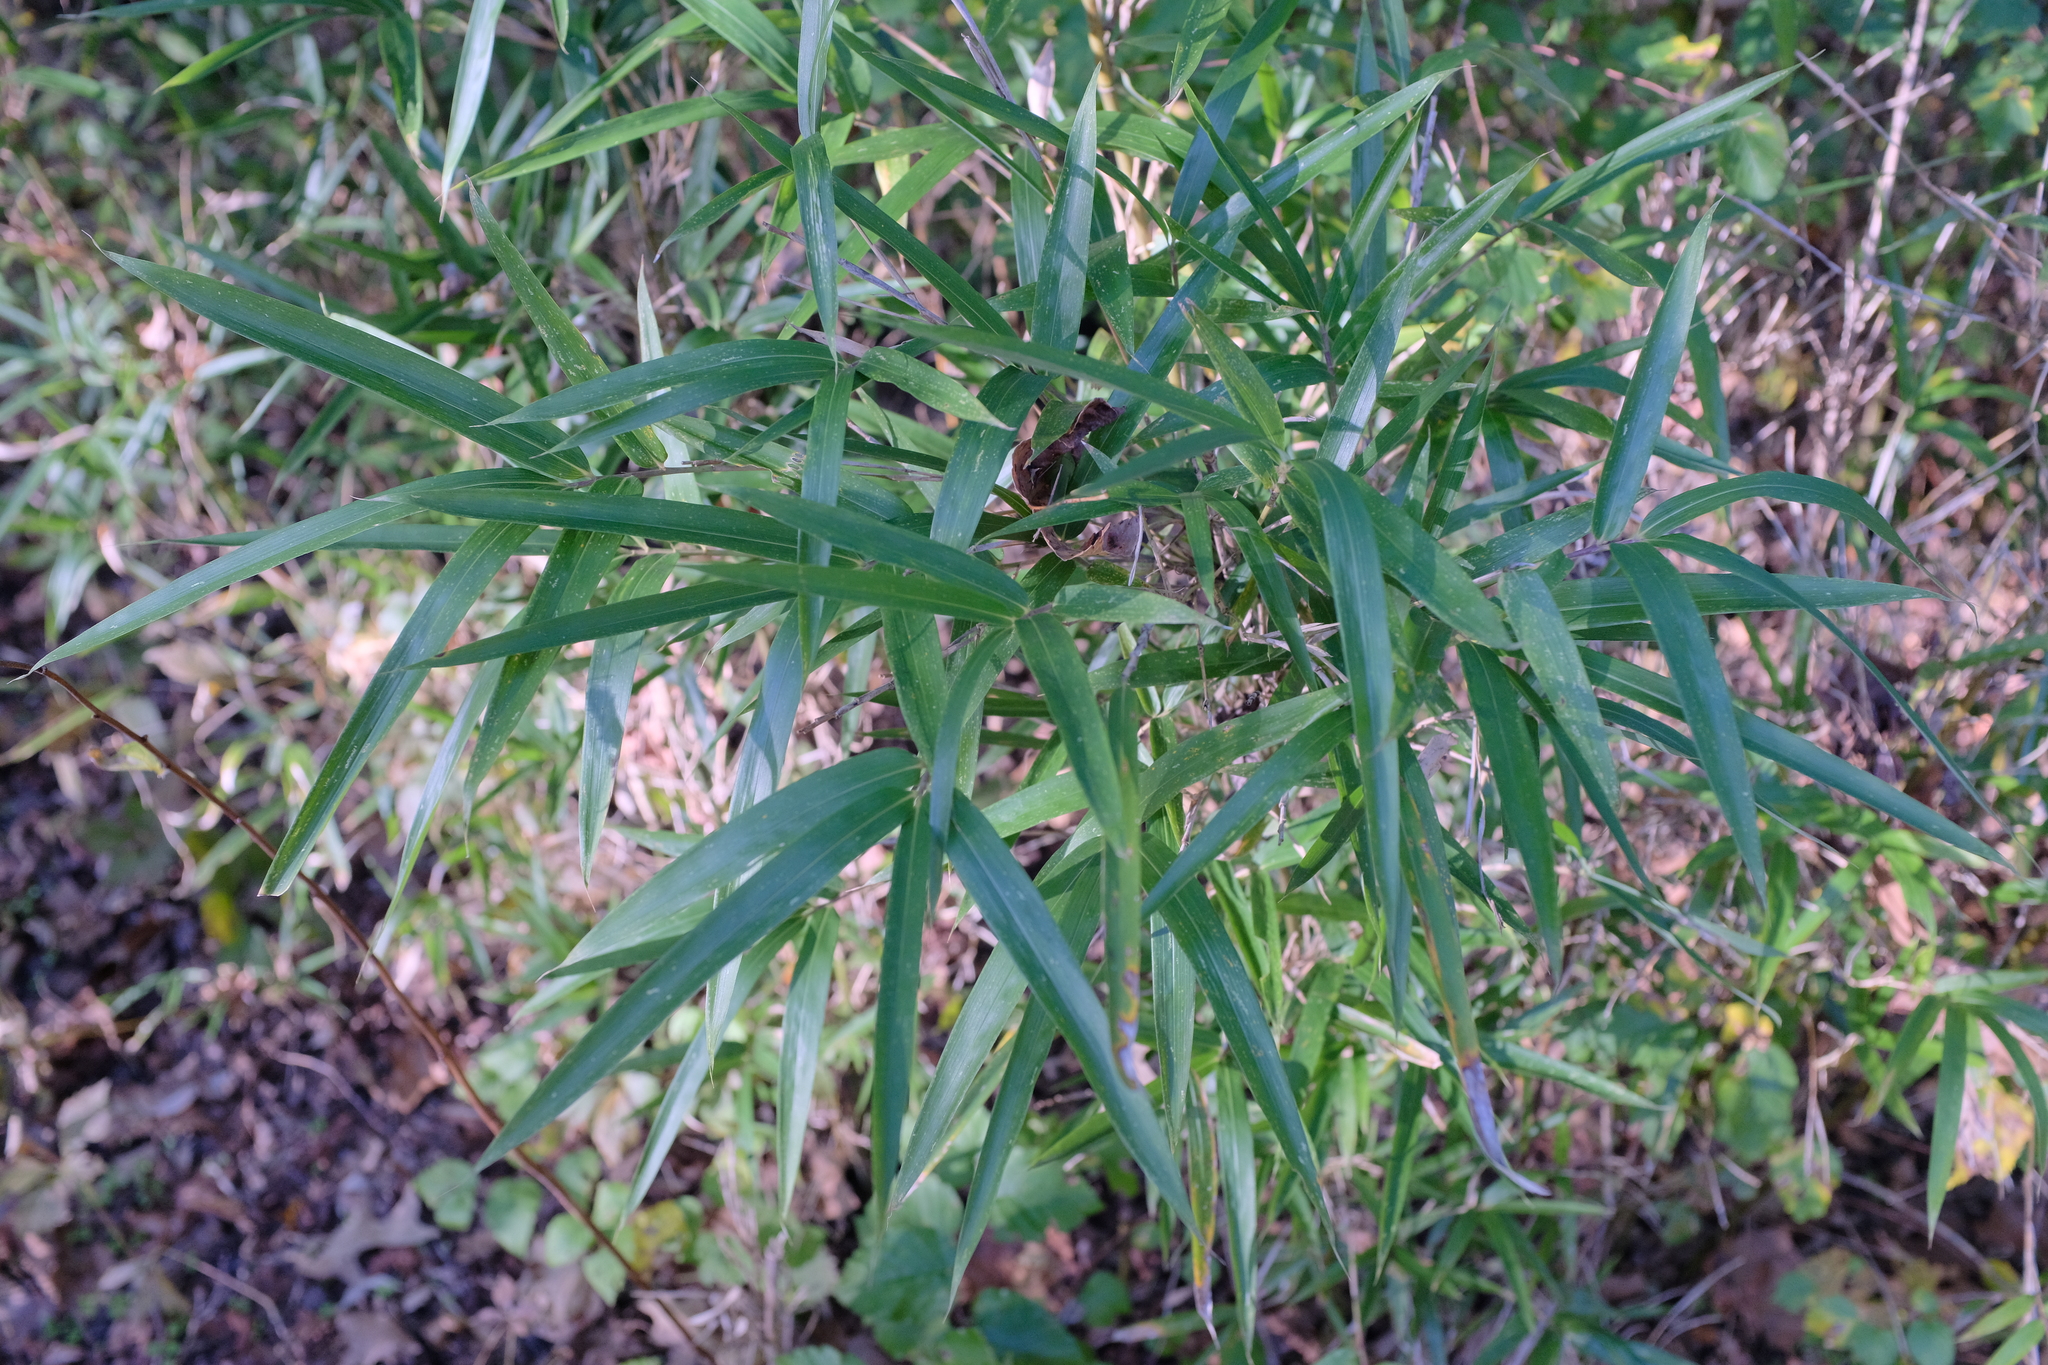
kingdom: Plantae
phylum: Tracheophyta
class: Liliopsida
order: Poales
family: Poaceae
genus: Arundinaria
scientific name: Arundinaria gigantea
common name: Giant cane
